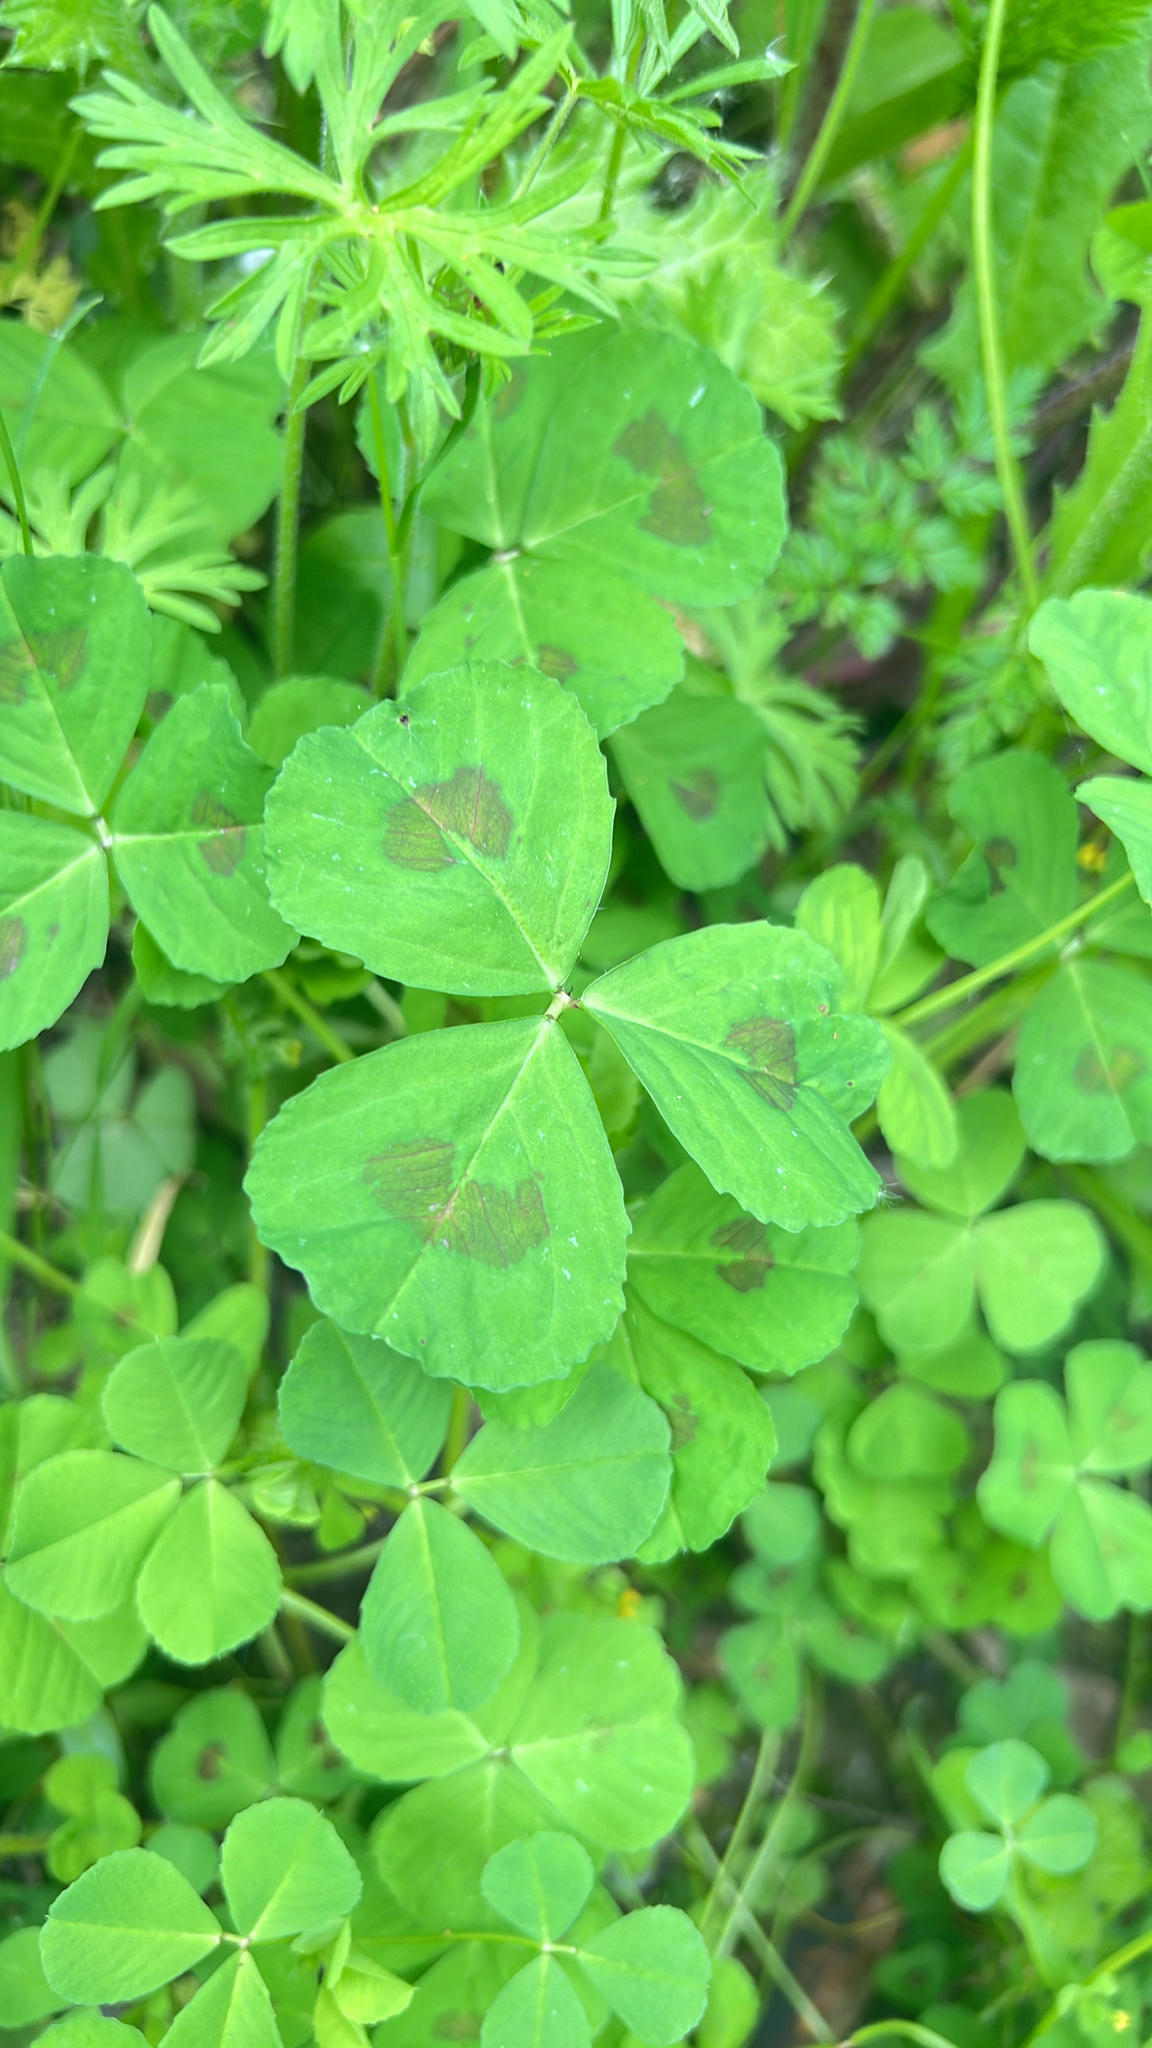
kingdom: Plantae
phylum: Tracheophyta
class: Magnoliopsida
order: Fabales
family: Fabaceae
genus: Medicago
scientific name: Medicago arabica
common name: Spotted medick
